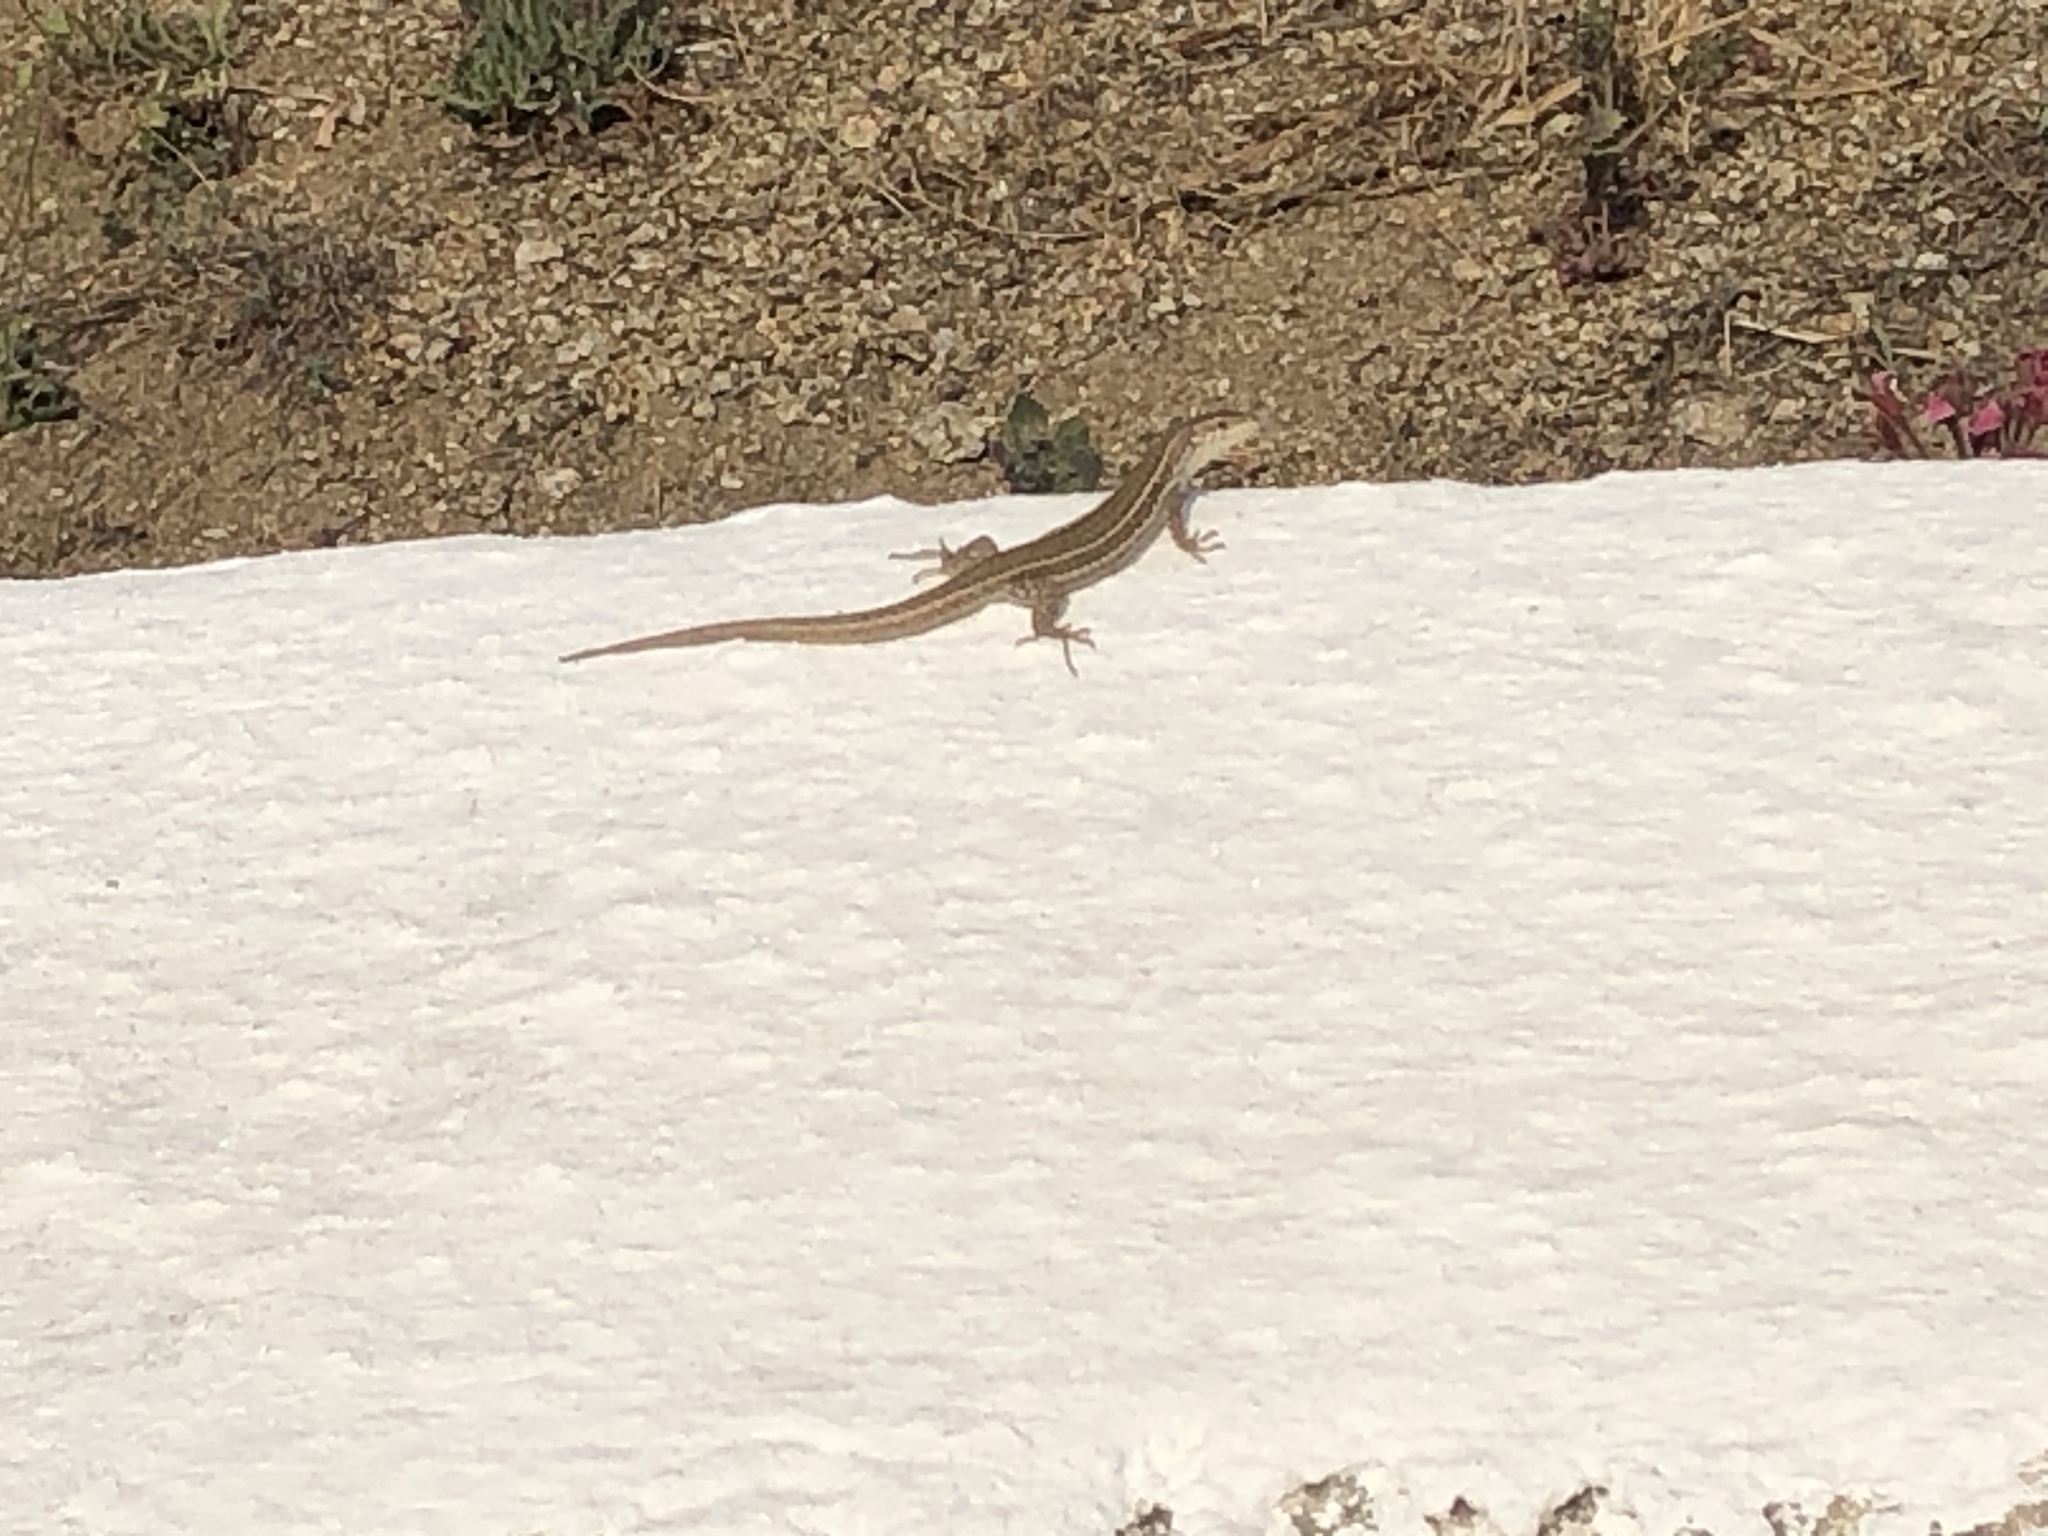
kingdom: Animalia
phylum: Chordata
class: Squamata
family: Lacertidae
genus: Podarcis
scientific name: Podarcis erhardii
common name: Erhard's wall lizard
